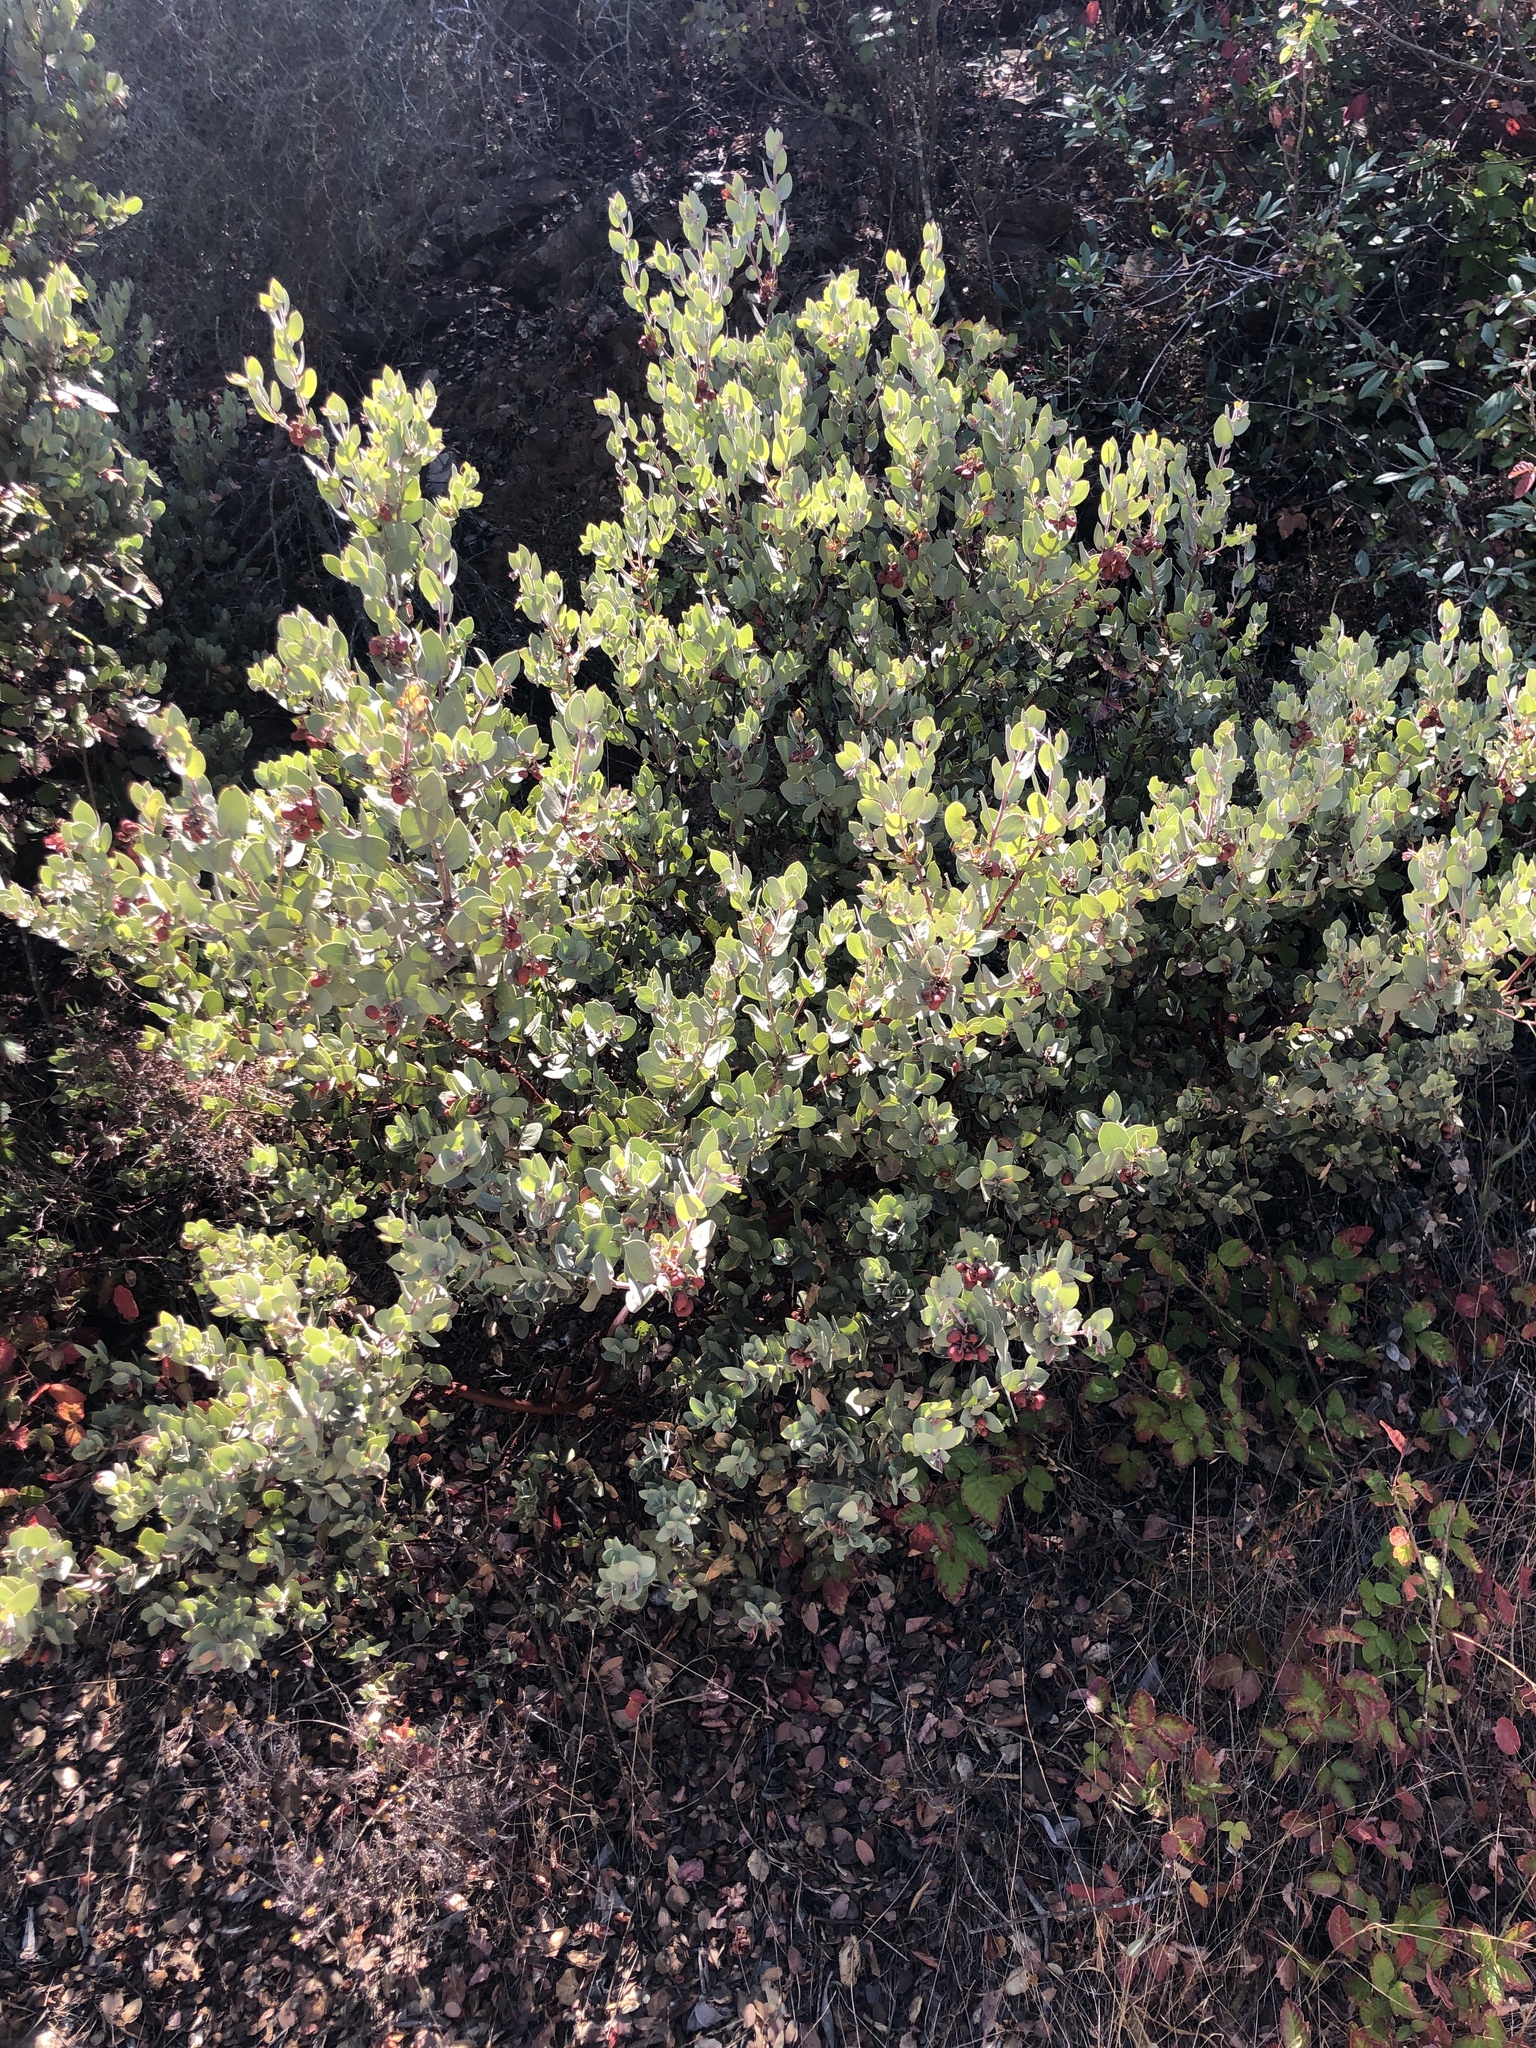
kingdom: Plantae
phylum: Tracheophyta
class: Magnoliopsida
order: Ericales
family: Ericaceae
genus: Arctostaphylos
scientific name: Arctostaphylos obispoensis
